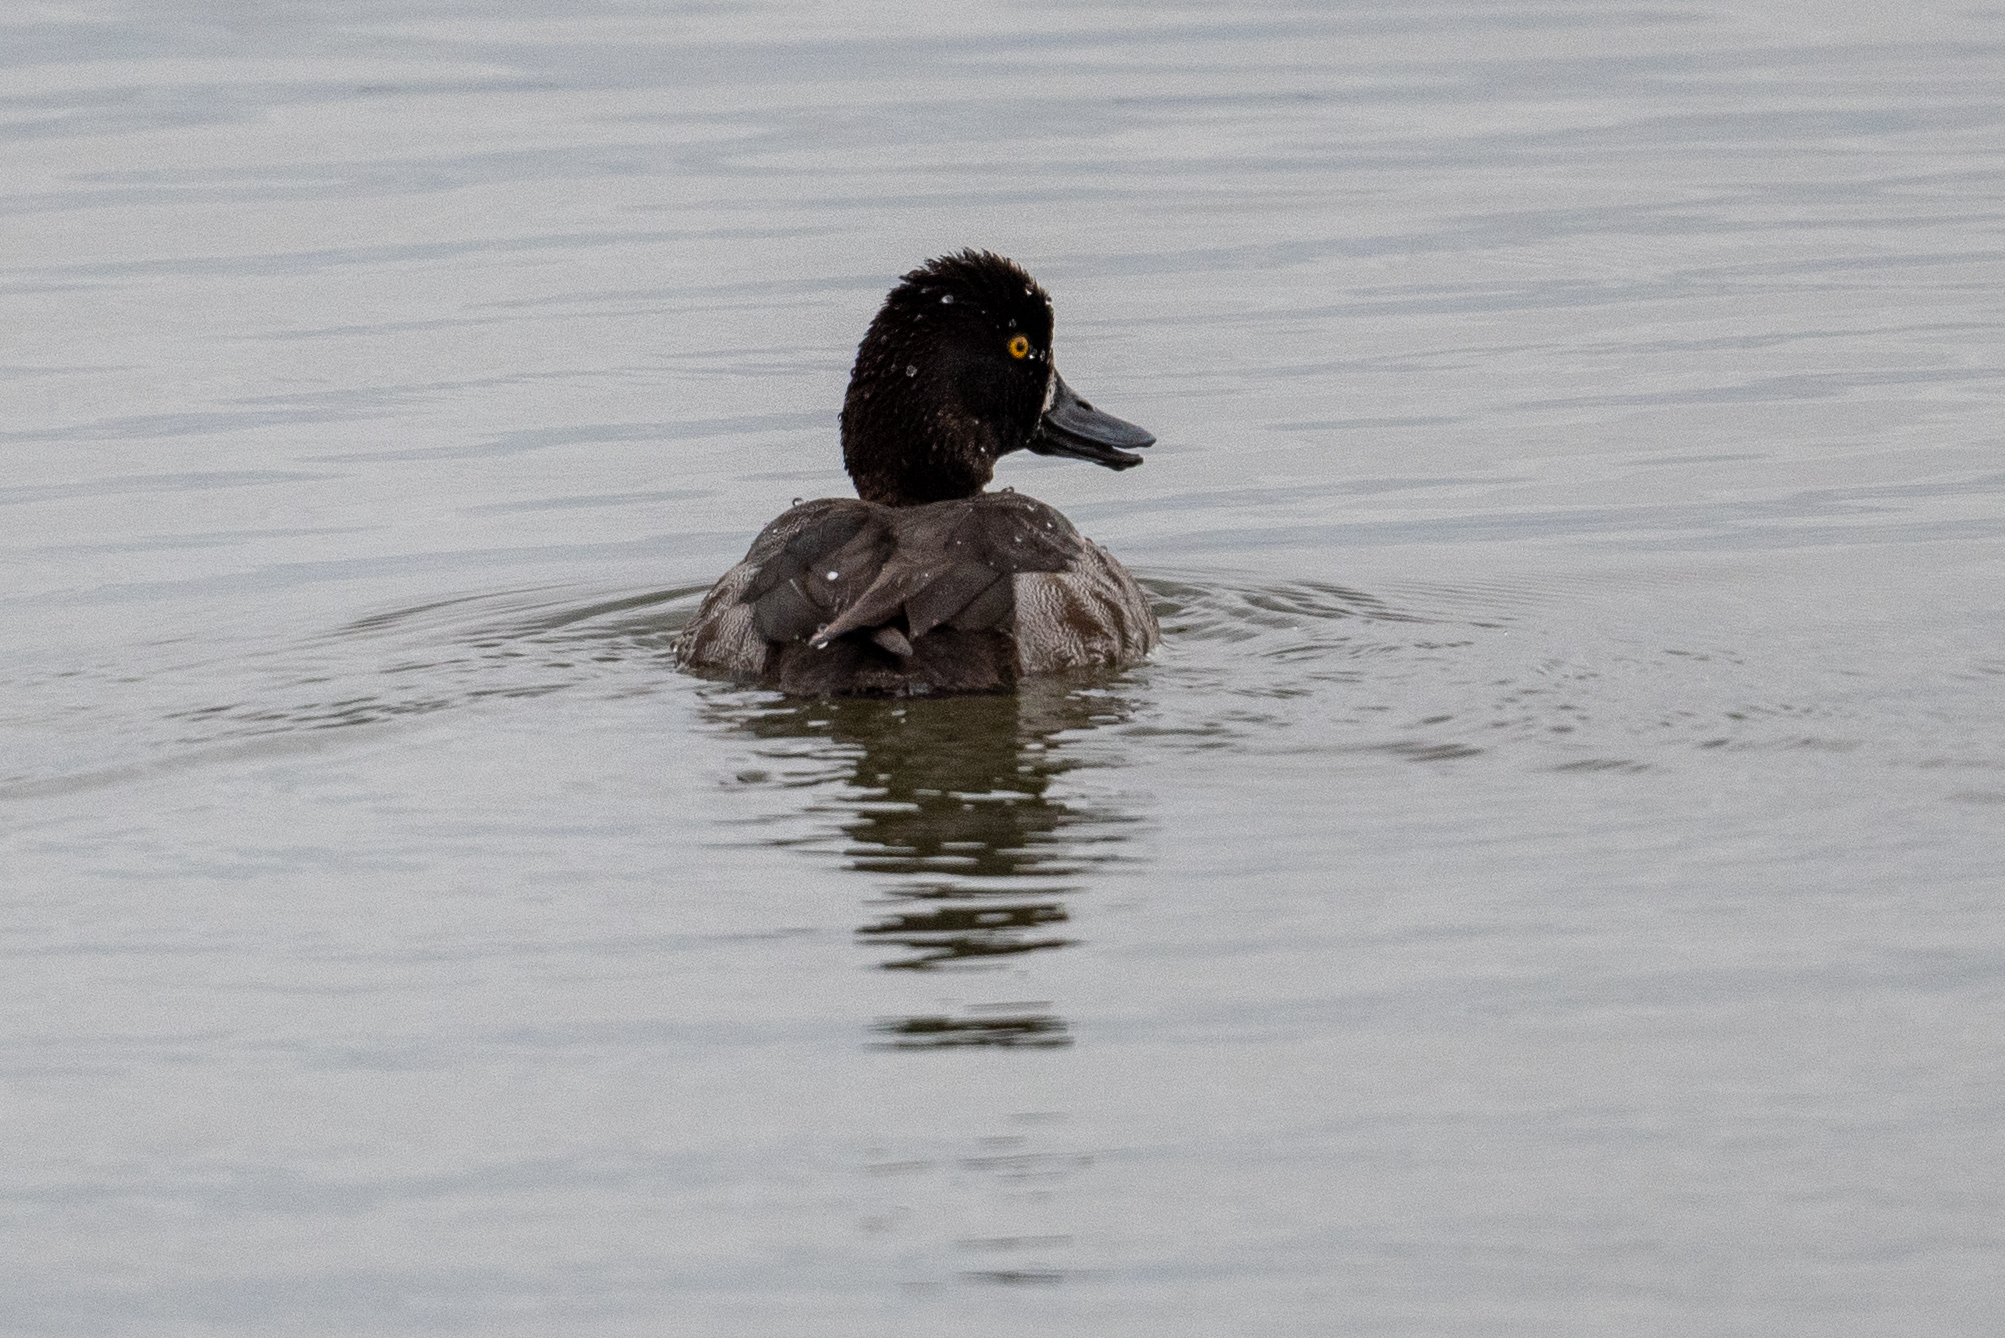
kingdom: Animalia
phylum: Chordata
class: Aves
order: Anseriformes
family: Anatidae
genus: Aythya
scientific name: Aythya marila
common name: Greater scaup
